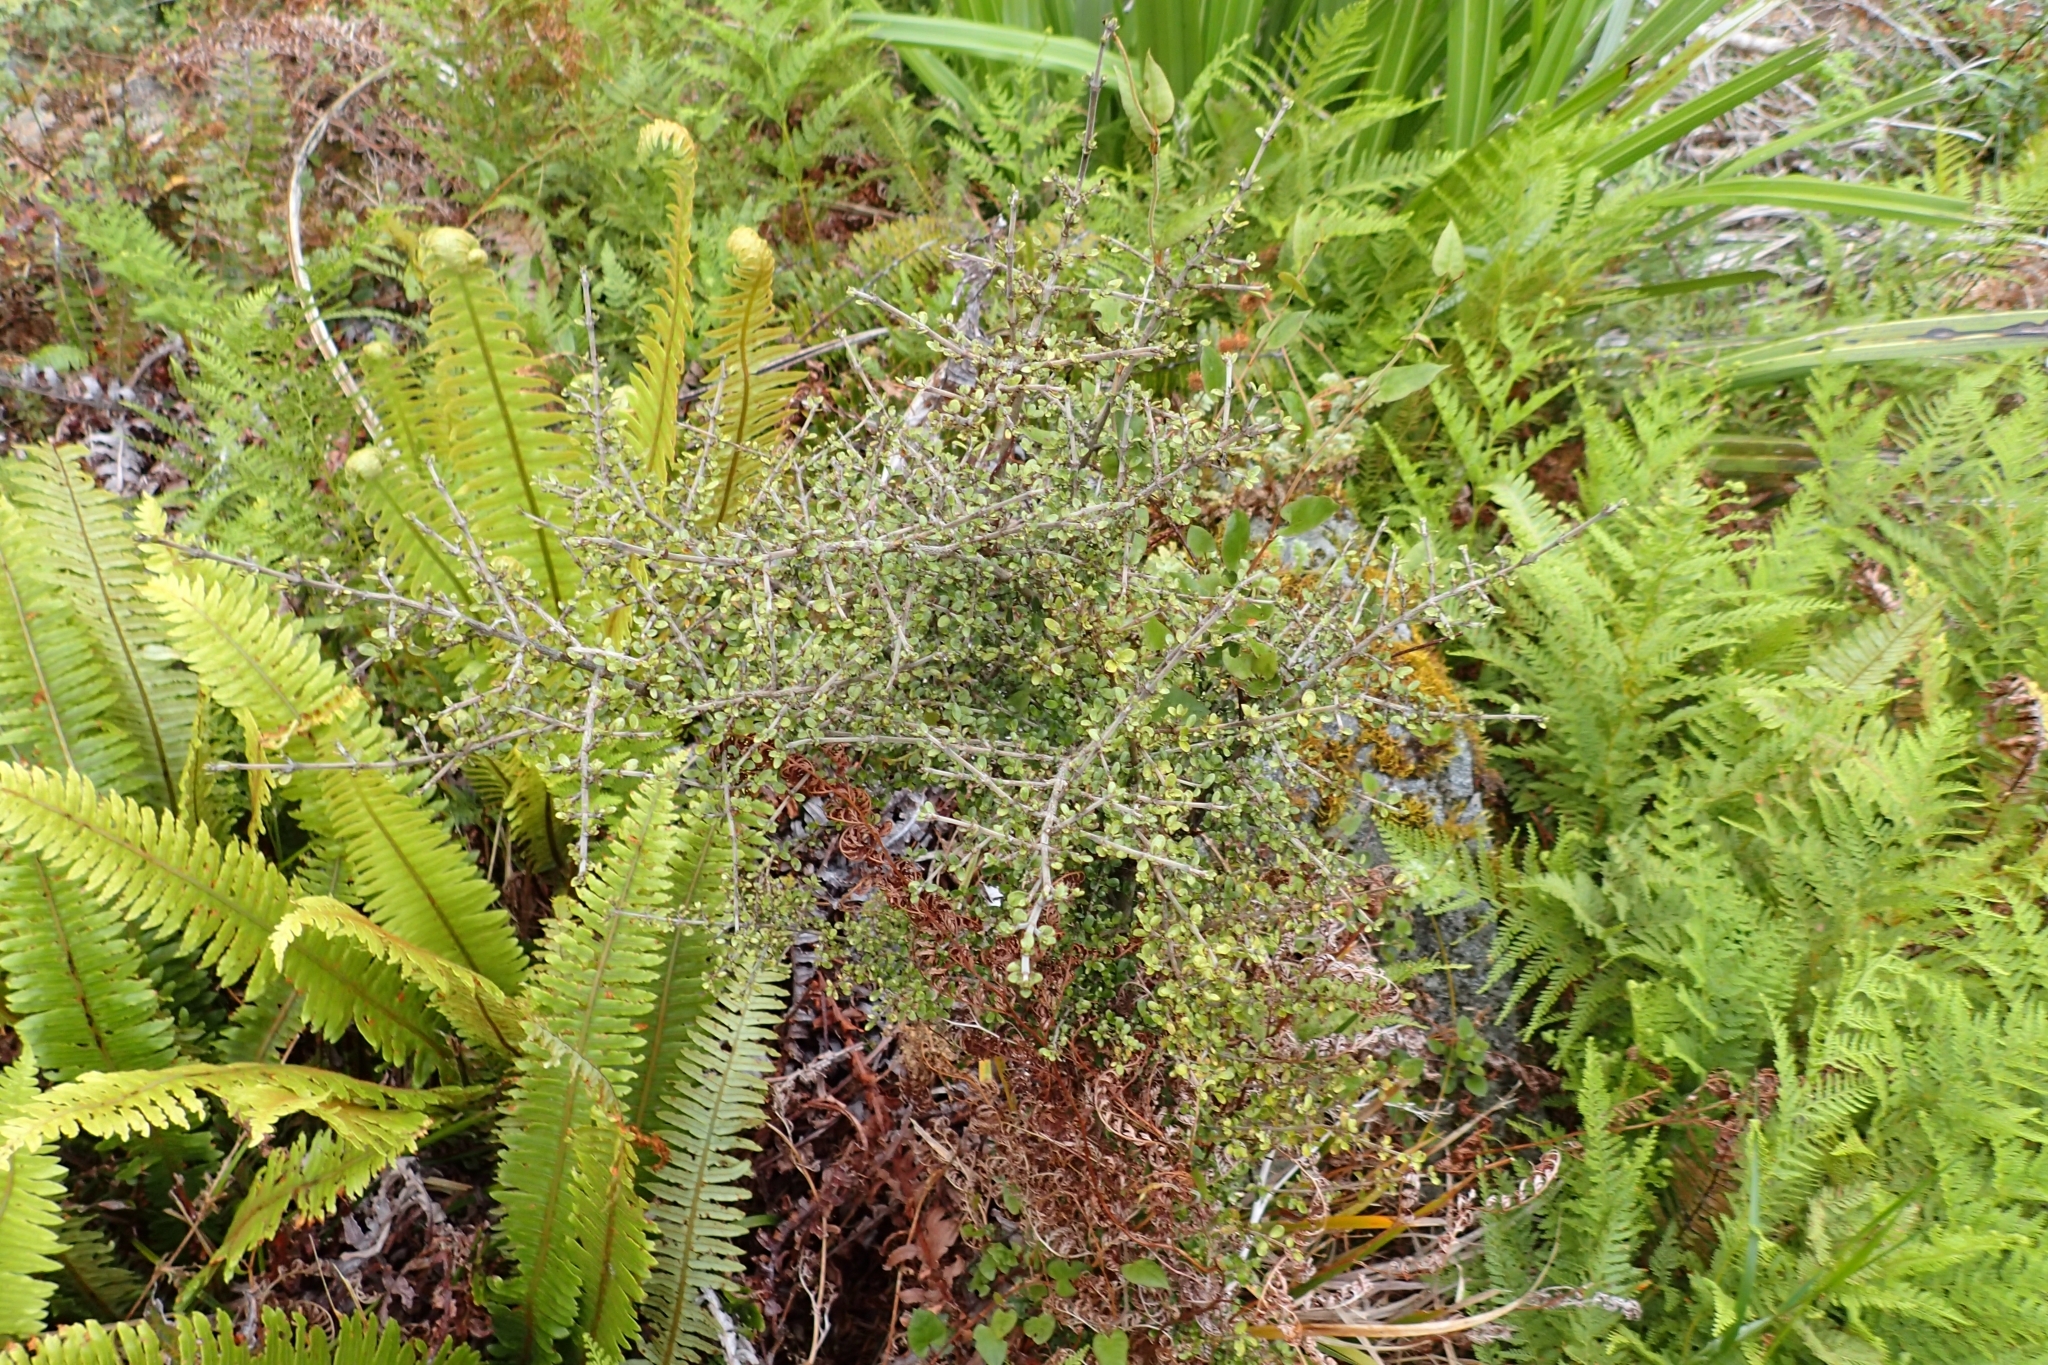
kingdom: Plantae
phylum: Tracheophyta
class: Magnoliopsida
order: Gentianales
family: Rubiaceae
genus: Coprosma
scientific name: Coprosma dumosa
